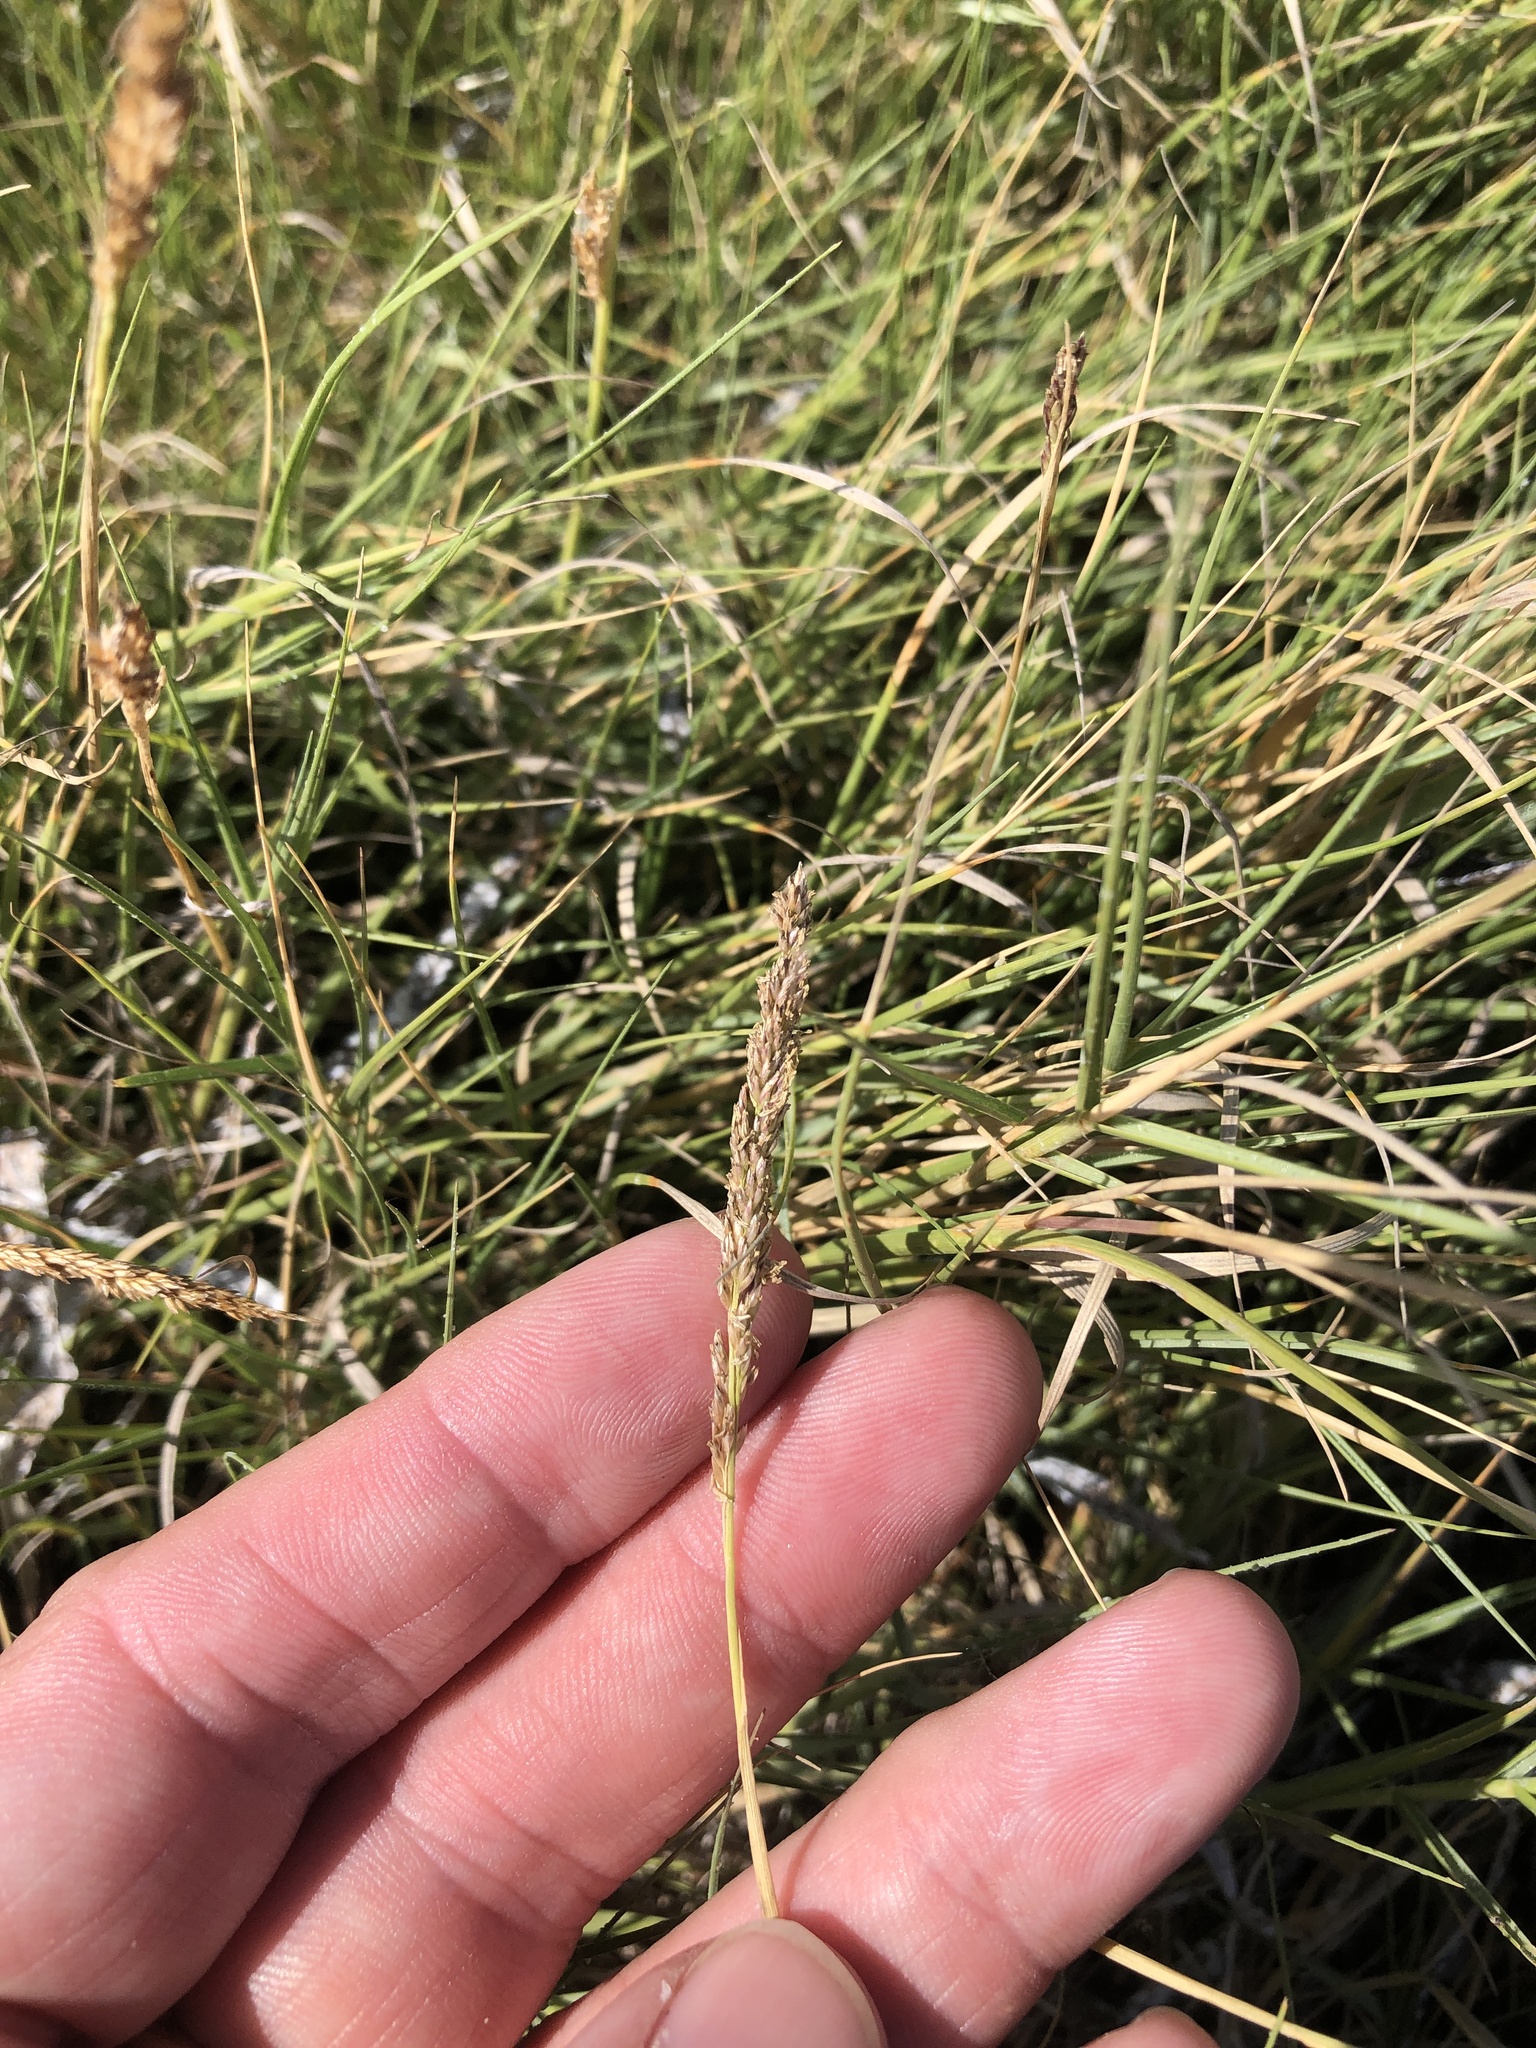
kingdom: Plantae
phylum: Tracheophyta
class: Liliopsida
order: Poales
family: Poaceae
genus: Sporobolus
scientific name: Sporobolus virginicus
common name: Beach dropseed
